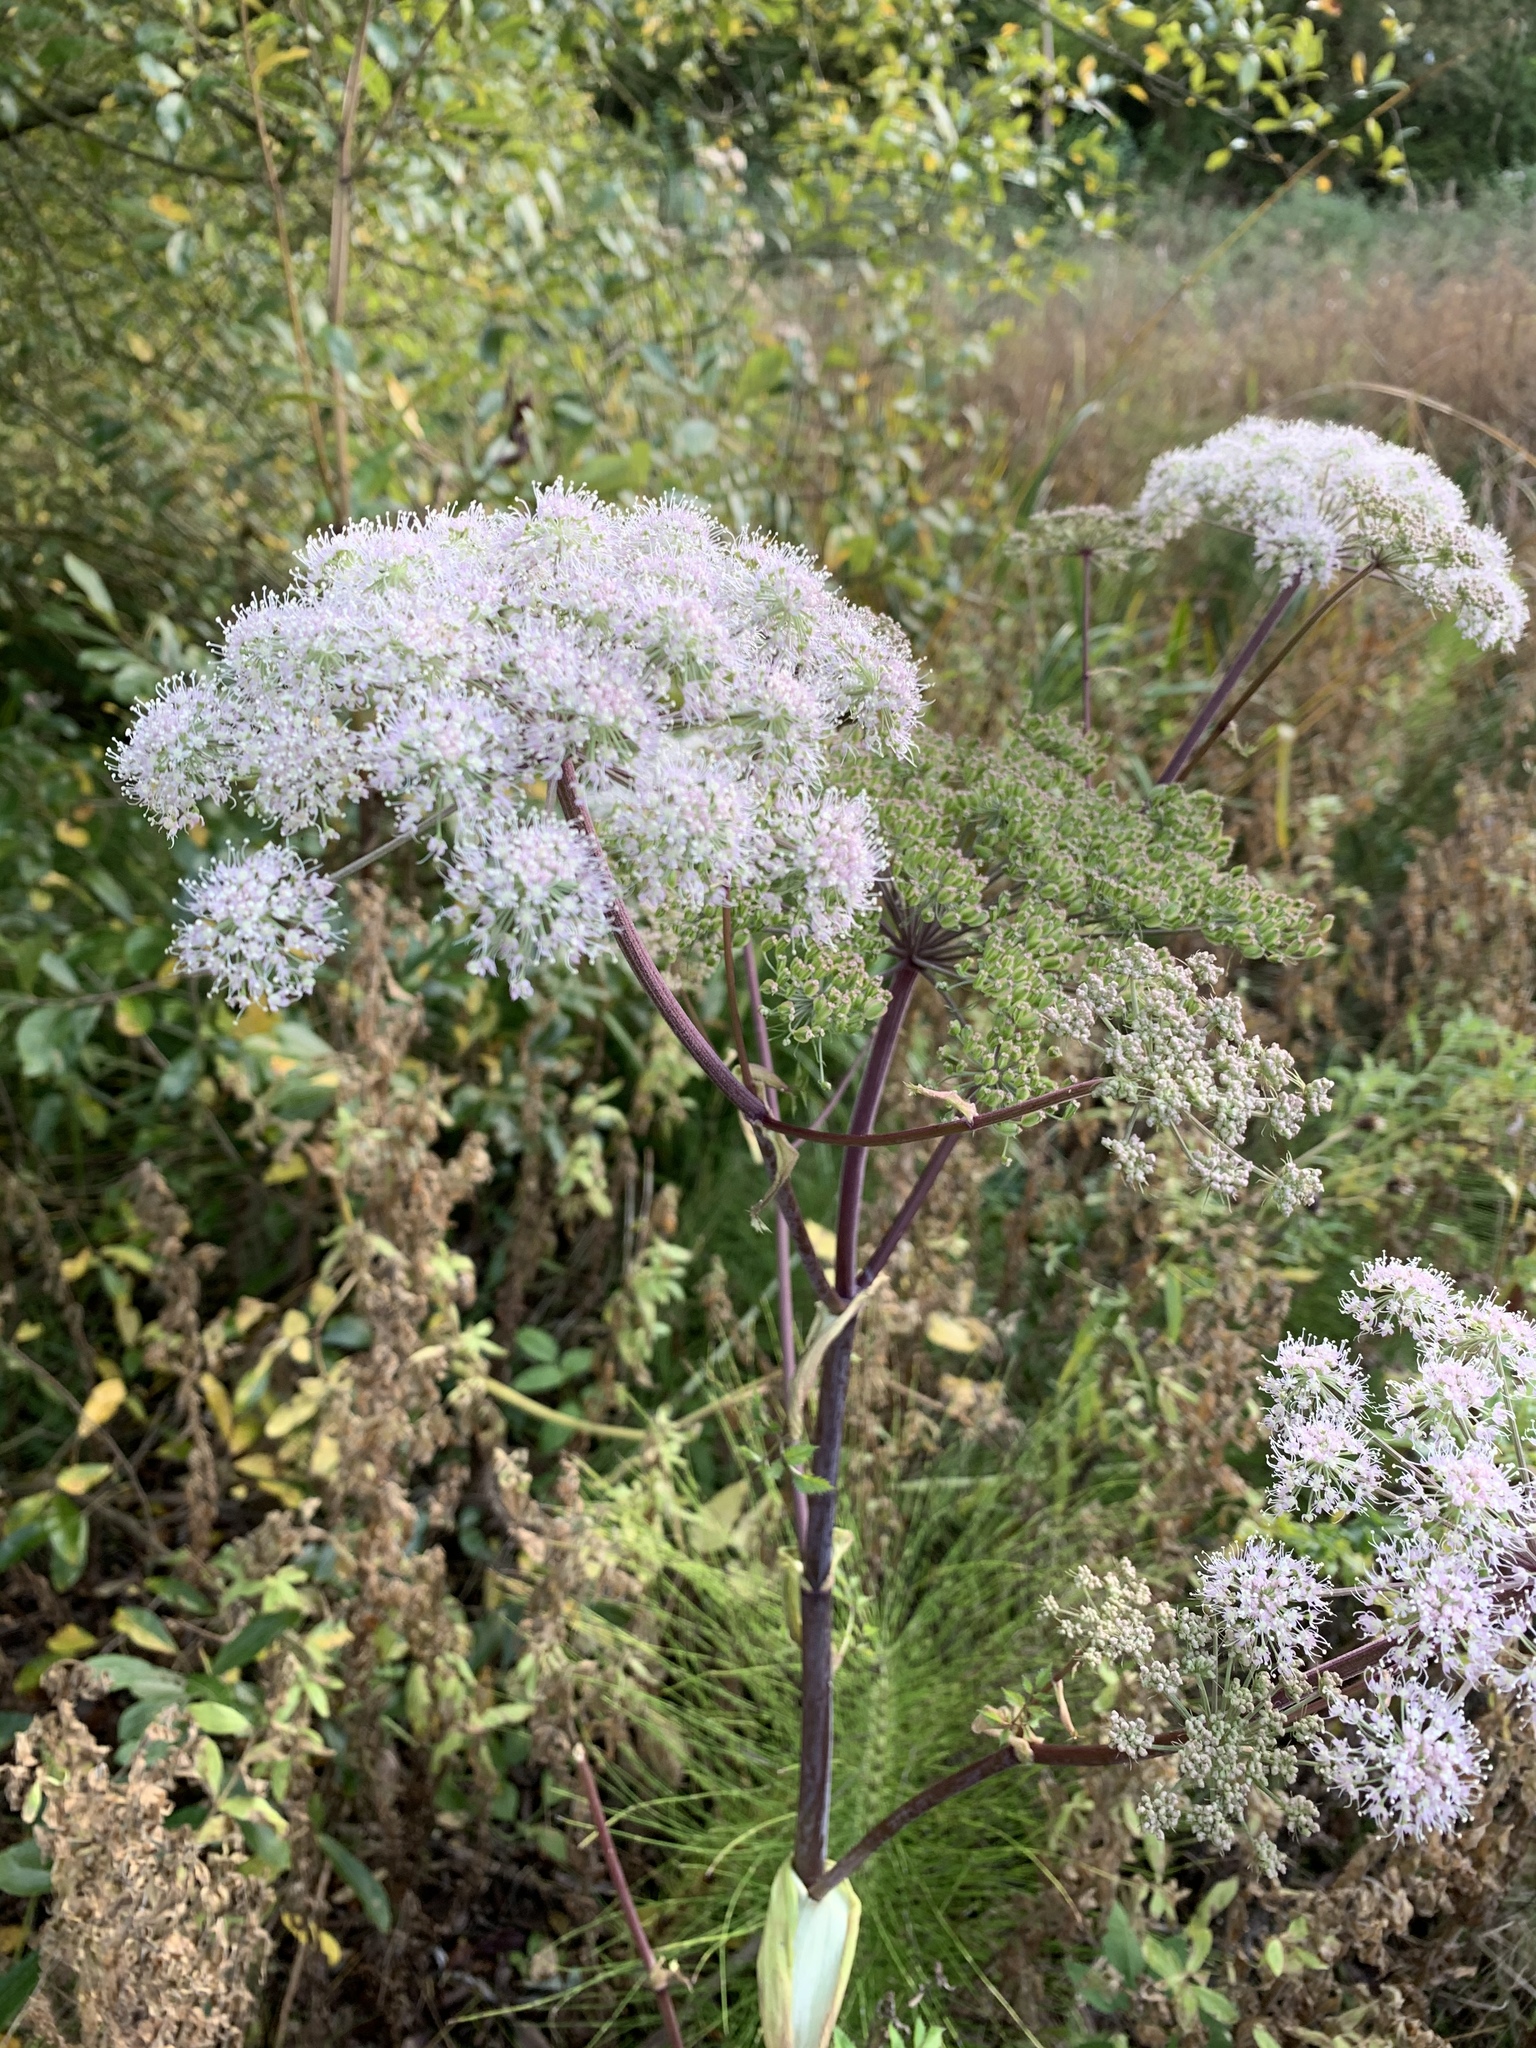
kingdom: Plantae
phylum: Tracheophyta
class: Magnoliopsida
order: Apiales
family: Apiaceae
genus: Angelica
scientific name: Angelica sylvestris
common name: Wild angelica
